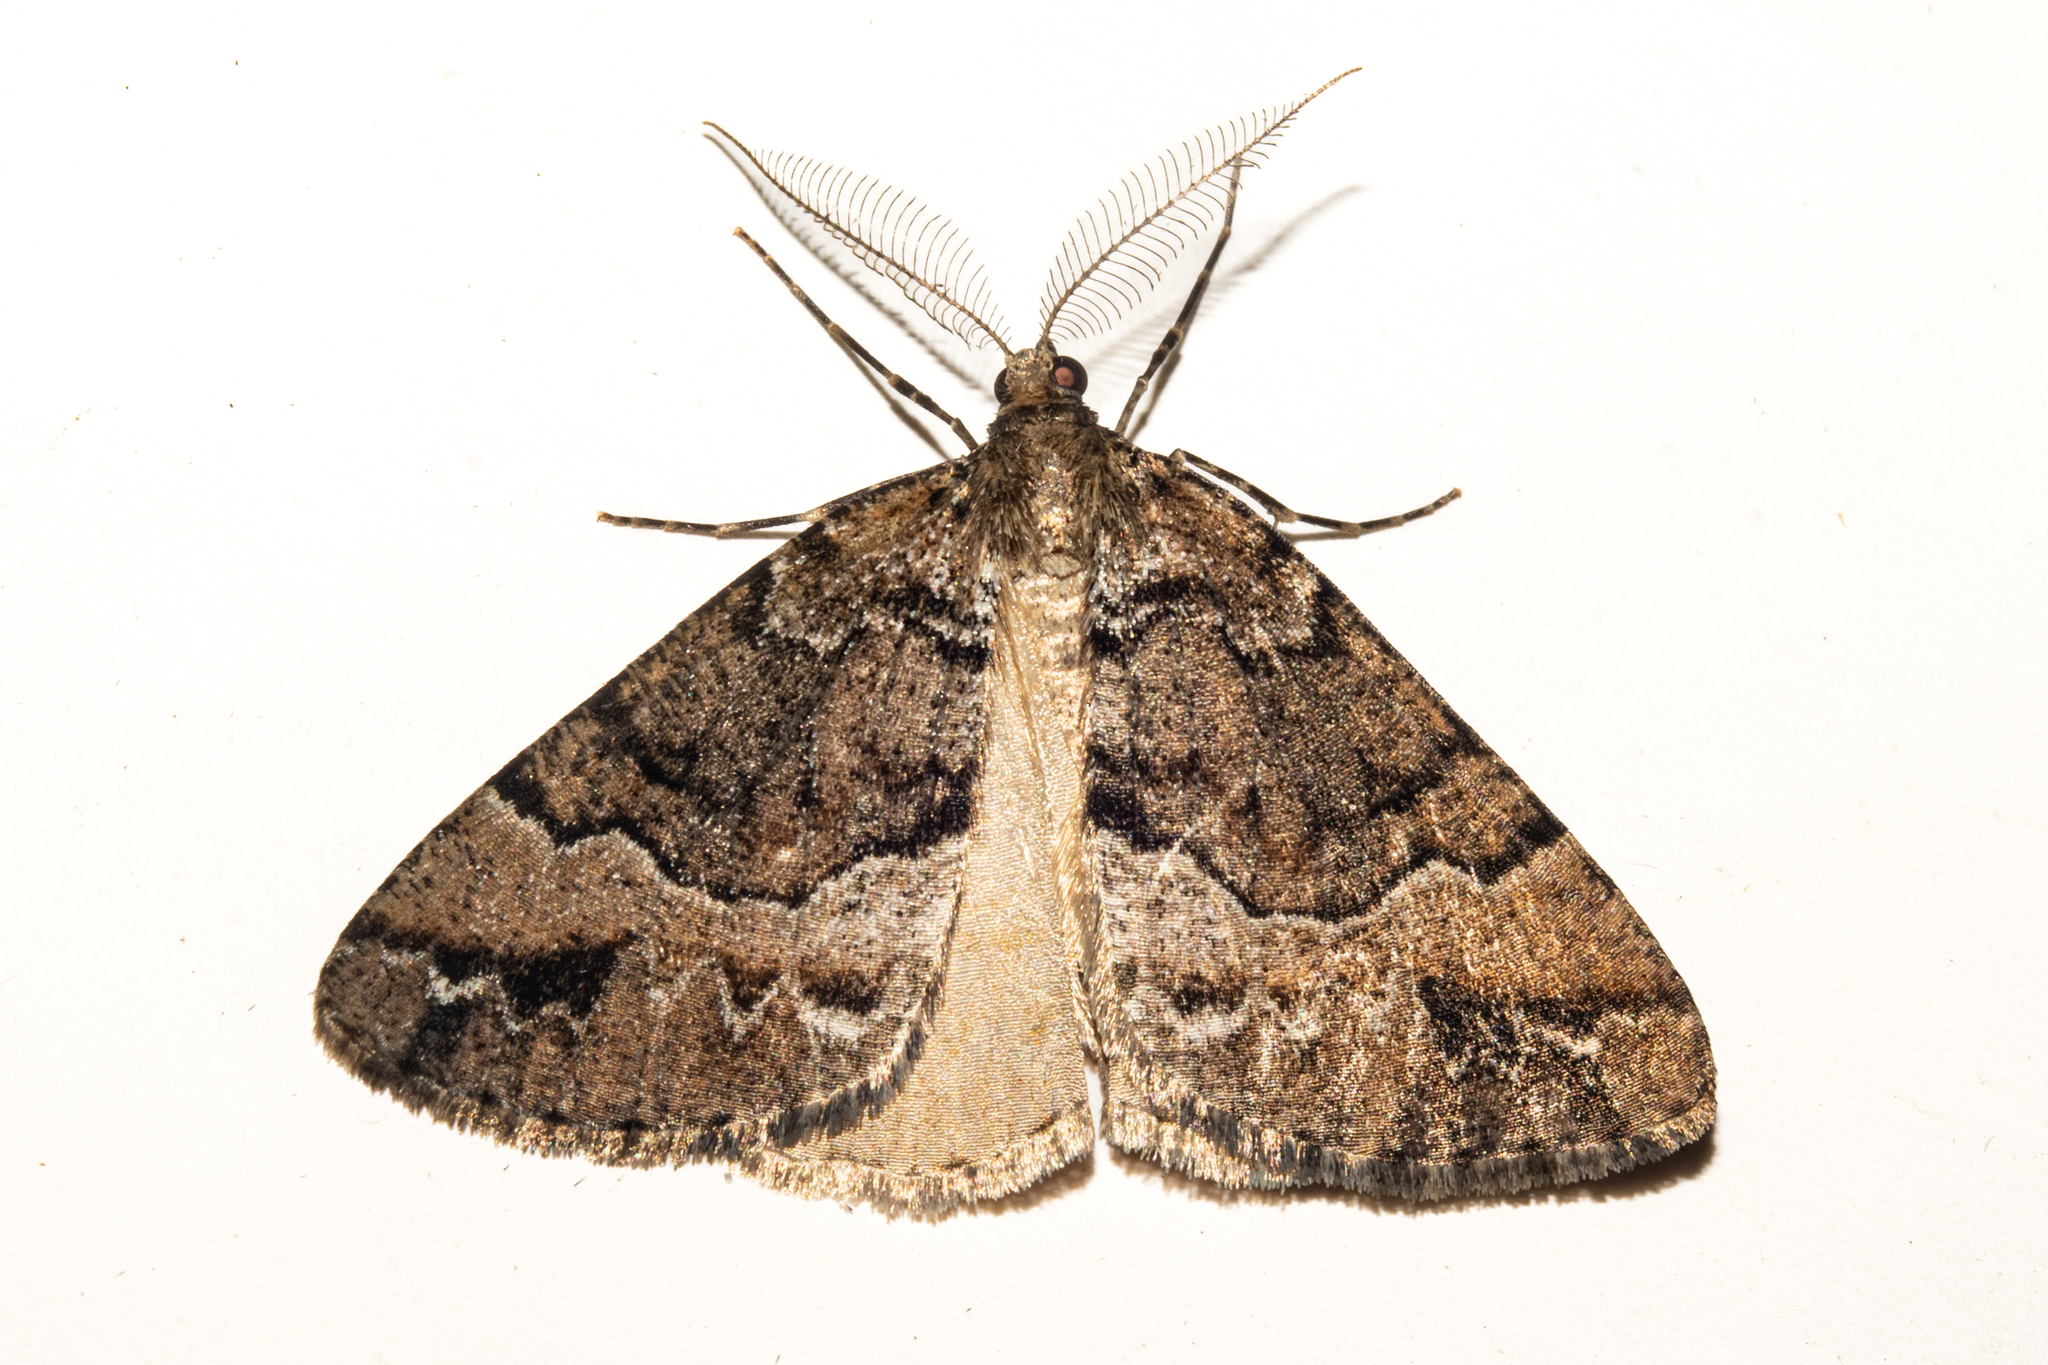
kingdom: Animalia
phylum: Arthropoda
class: Insecta
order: Lepidoptera
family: Geometridae
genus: Pseudocoremia
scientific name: Pseudocoremia colpogramma
